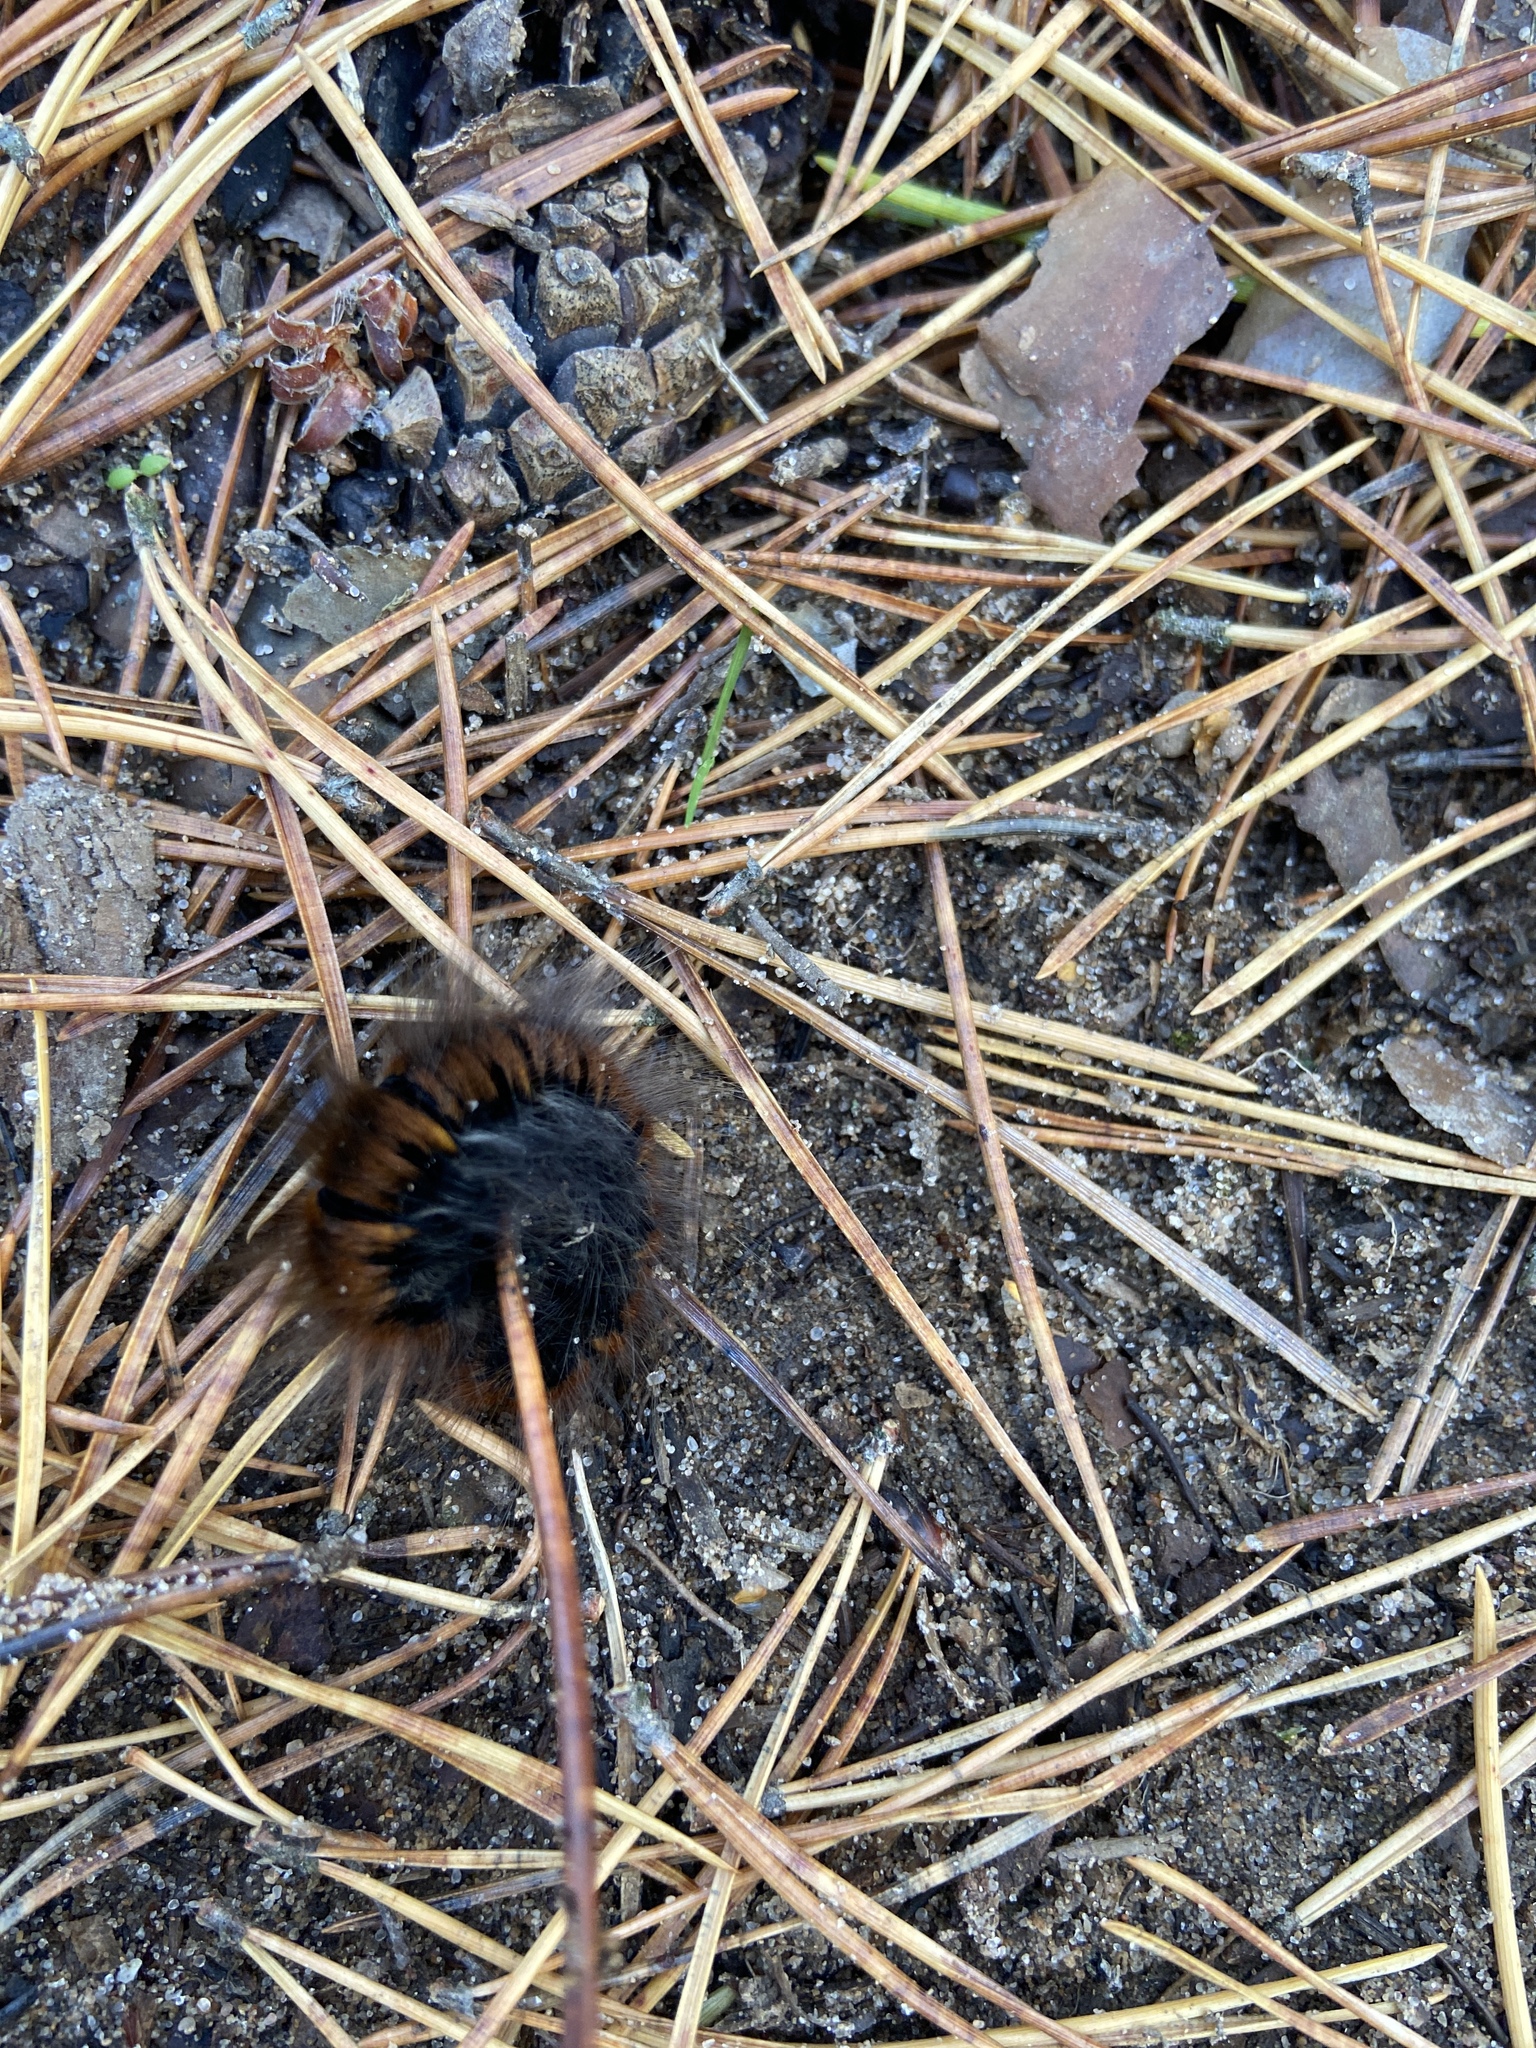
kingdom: Animalia
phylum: Arthropoda
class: Insecta
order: Lepidoptera
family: Lasiocampidae
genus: Macrothylacia
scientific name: Macrothylacia rubi
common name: Fox moth
